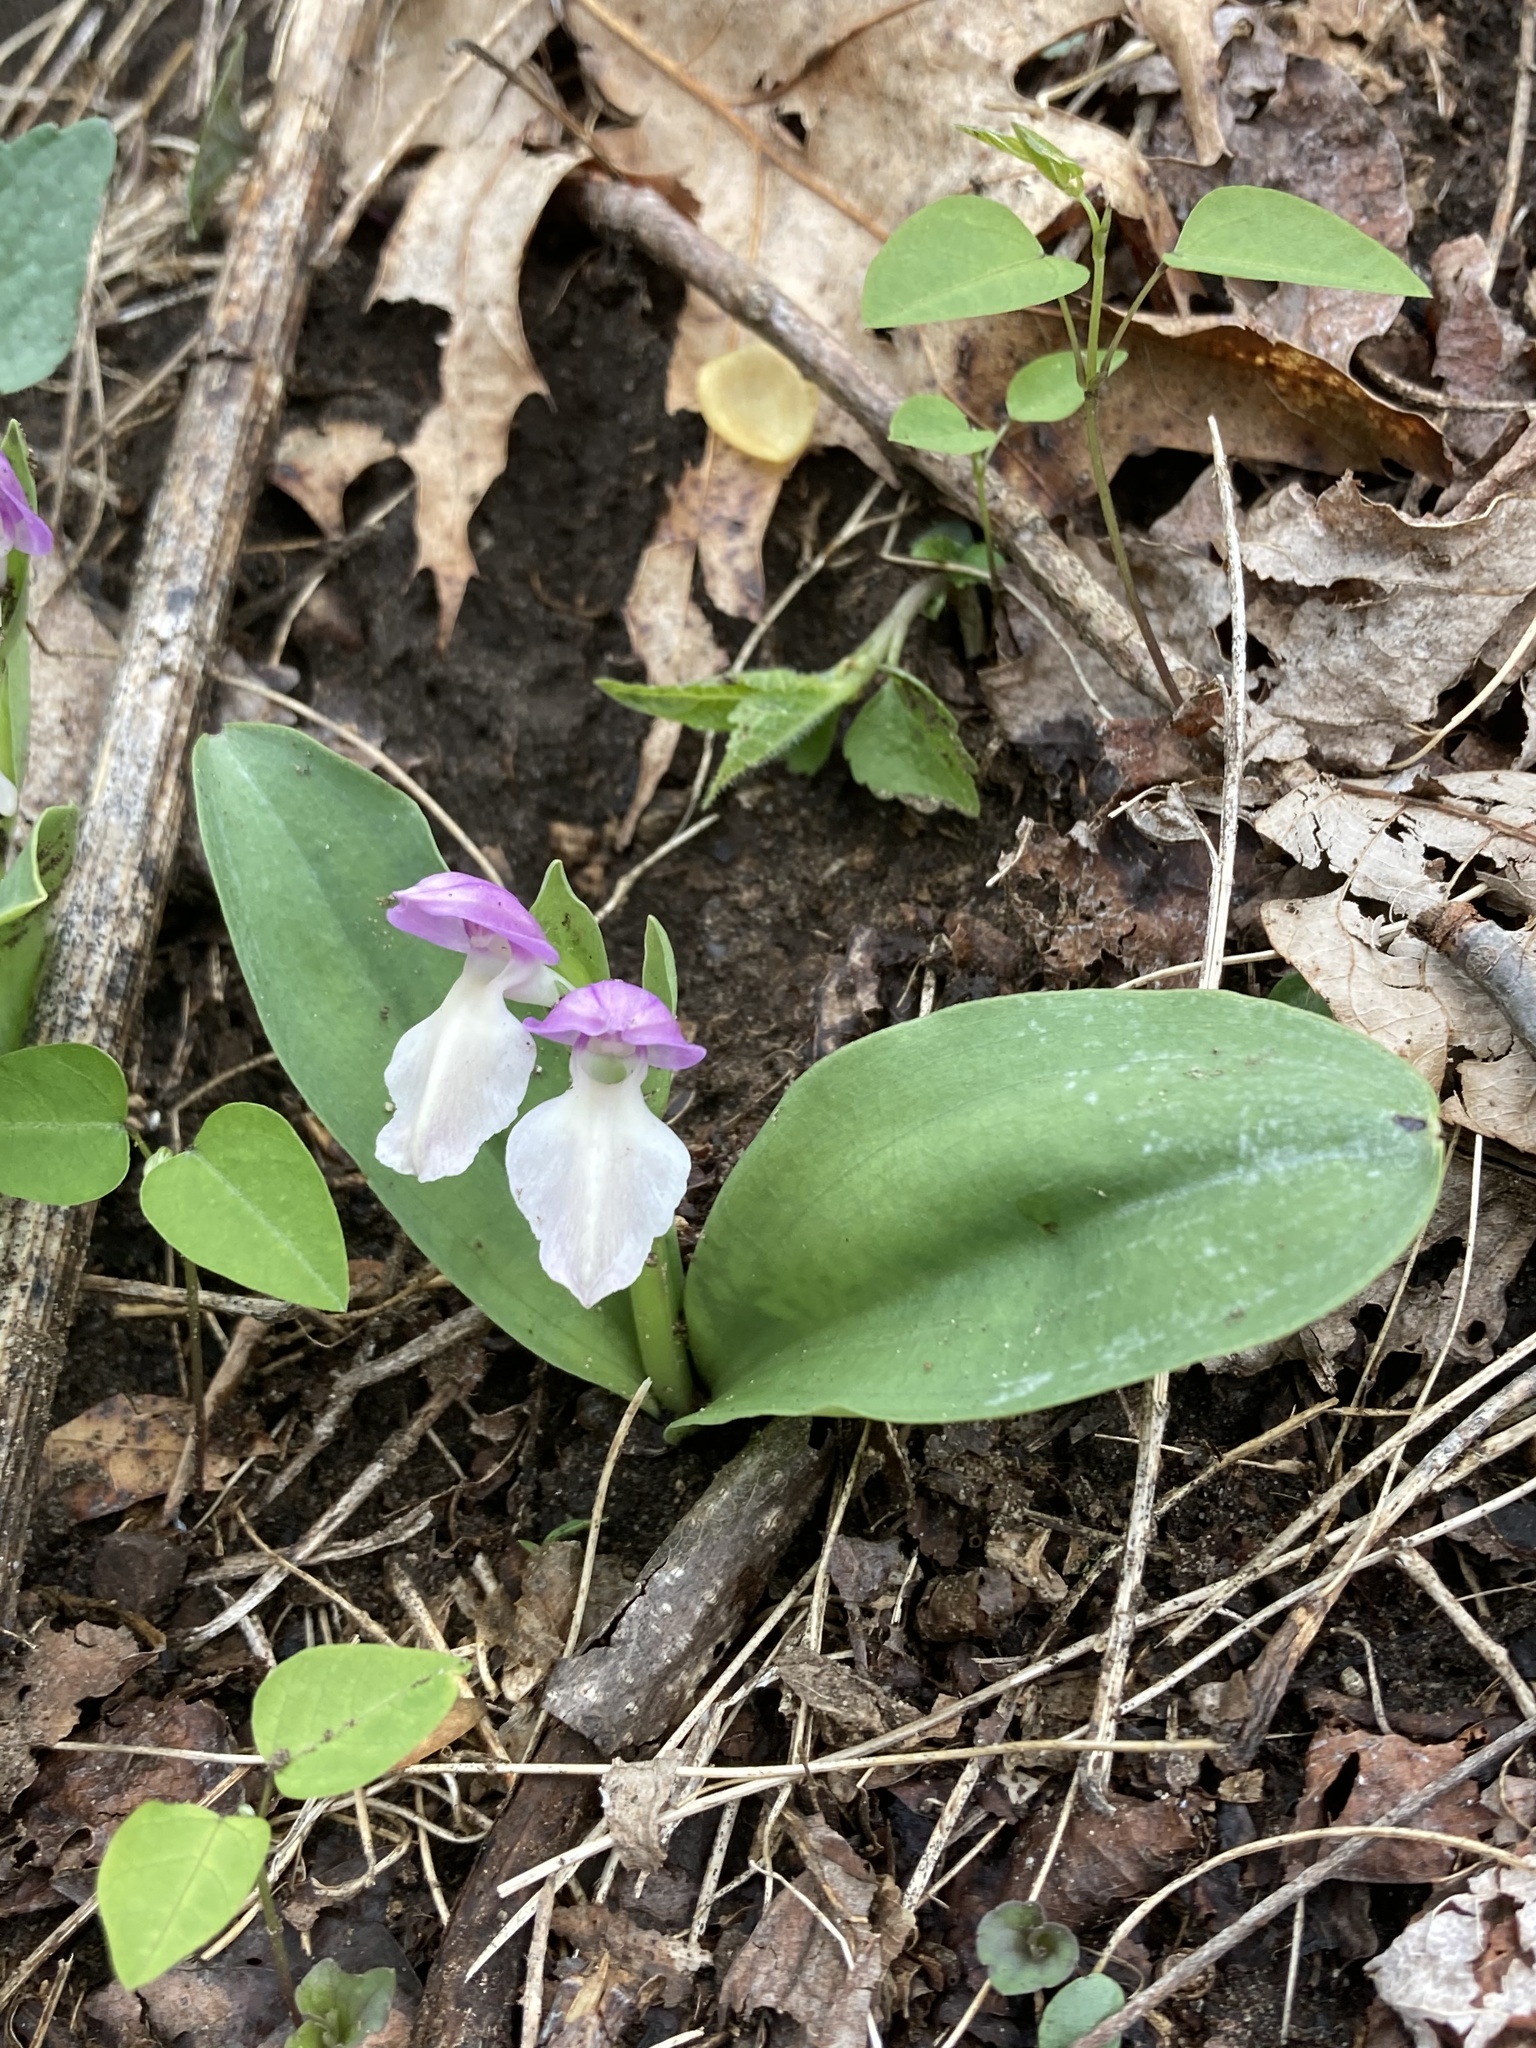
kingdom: Plantae
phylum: Tracheophyta
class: Liliopsida
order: Asparagales
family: Orchidaceae
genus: Galearis
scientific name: Galearis spectabilis
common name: Purple-hooded orchis
